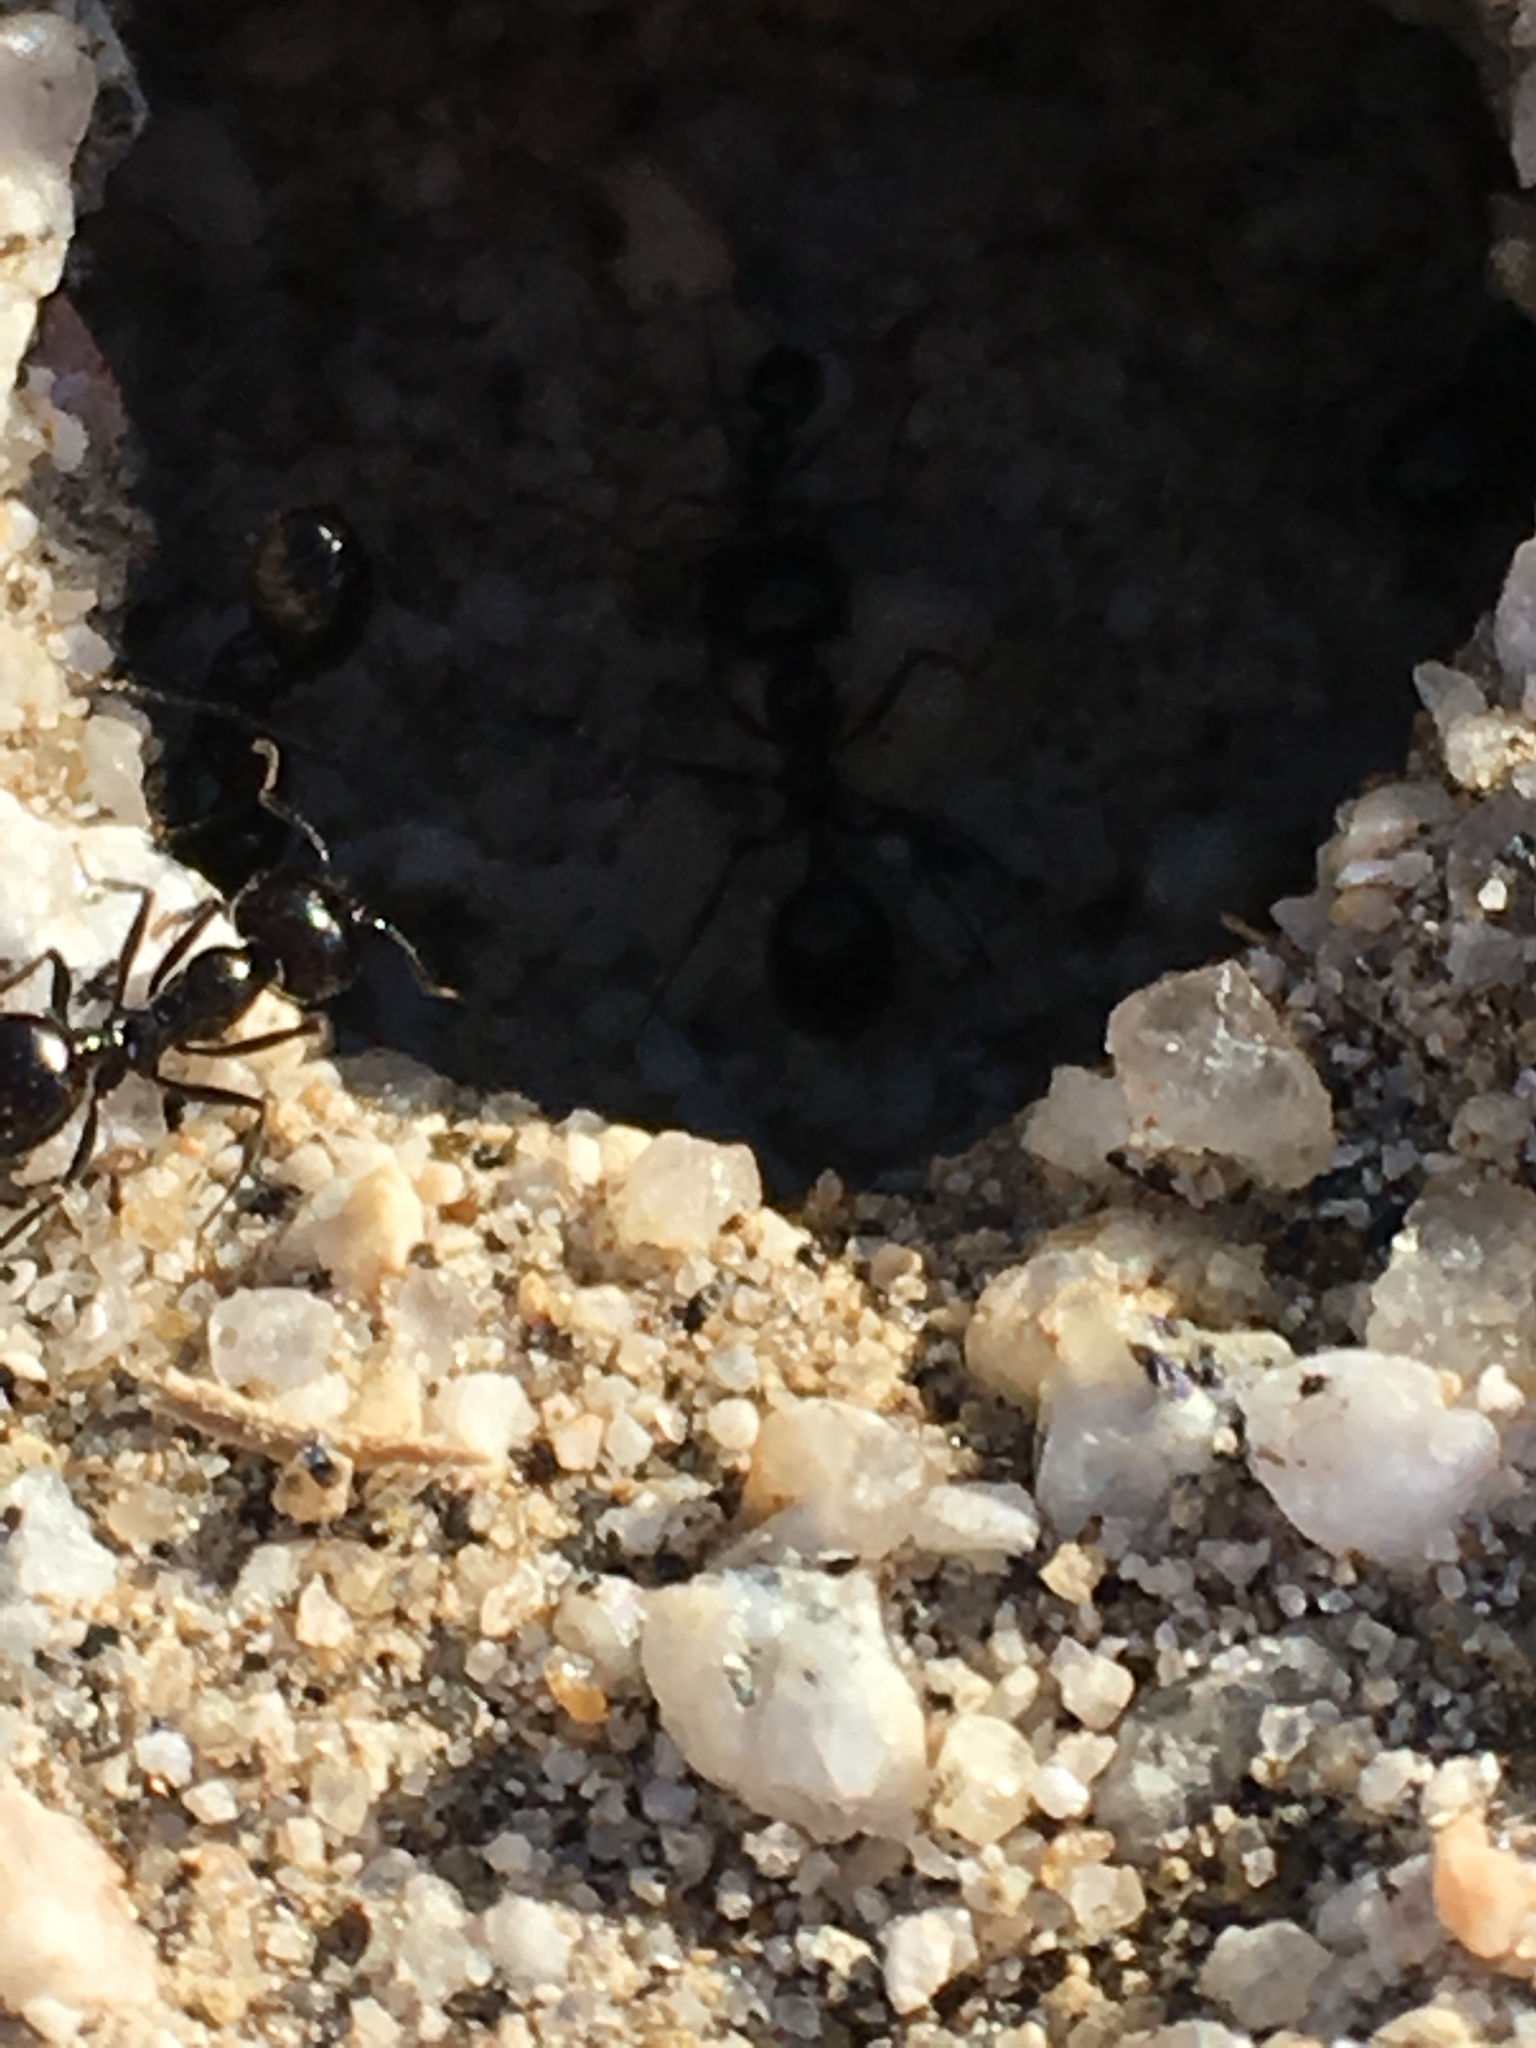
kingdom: Animalia
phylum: Arthropoda
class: Insecta
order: Hymenoptera
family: Formicidae
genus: Messor
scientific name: Messor pergandei
